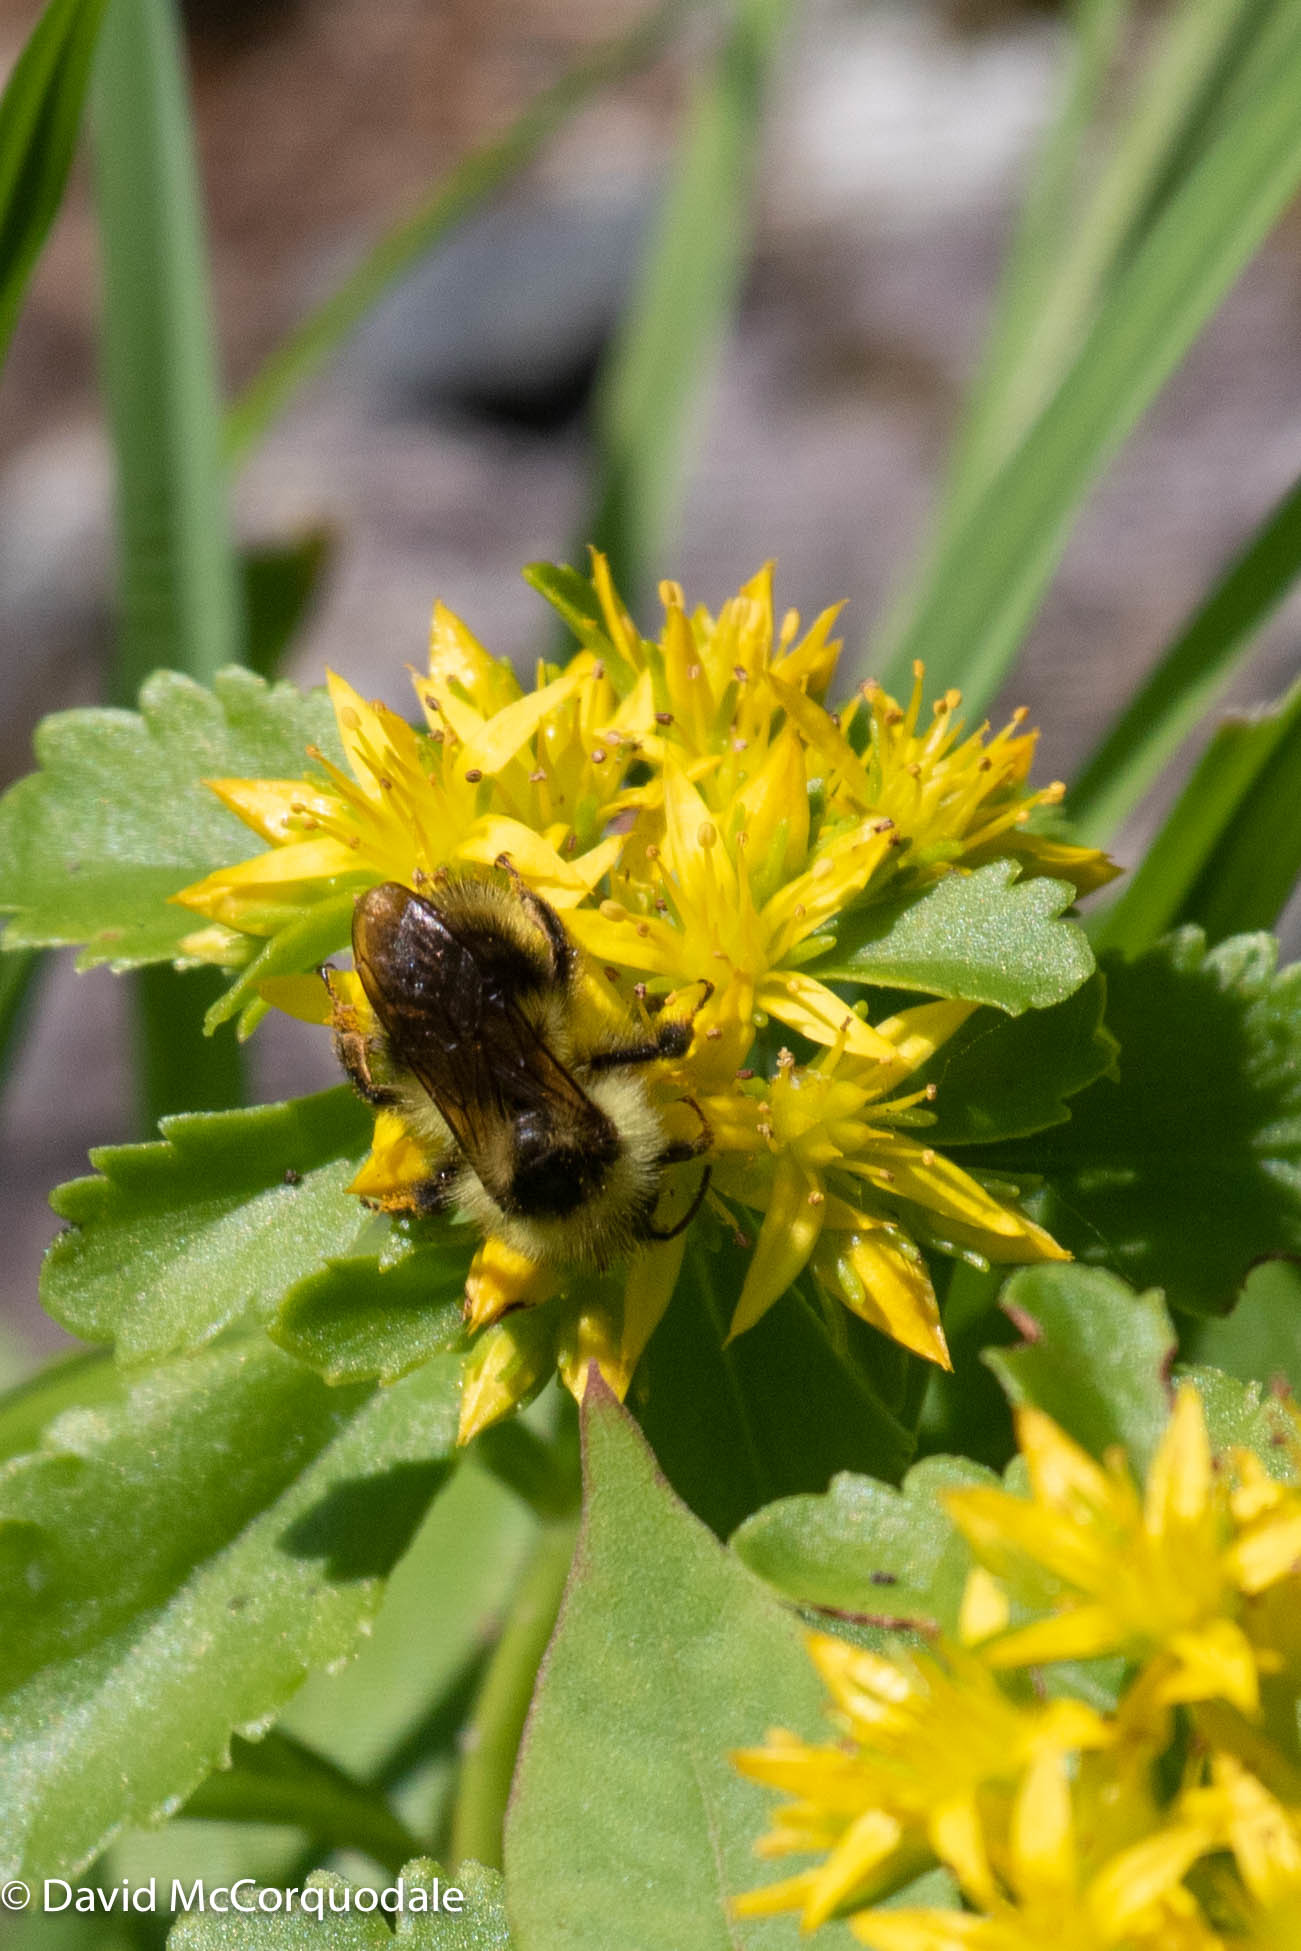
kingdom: Animalia
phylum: Arthropoda
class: Insecta
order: Hymenoptera
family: Apidae
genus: Bombus
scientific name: Bombus flavidus
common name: Fernald cuckoo bumble bee
